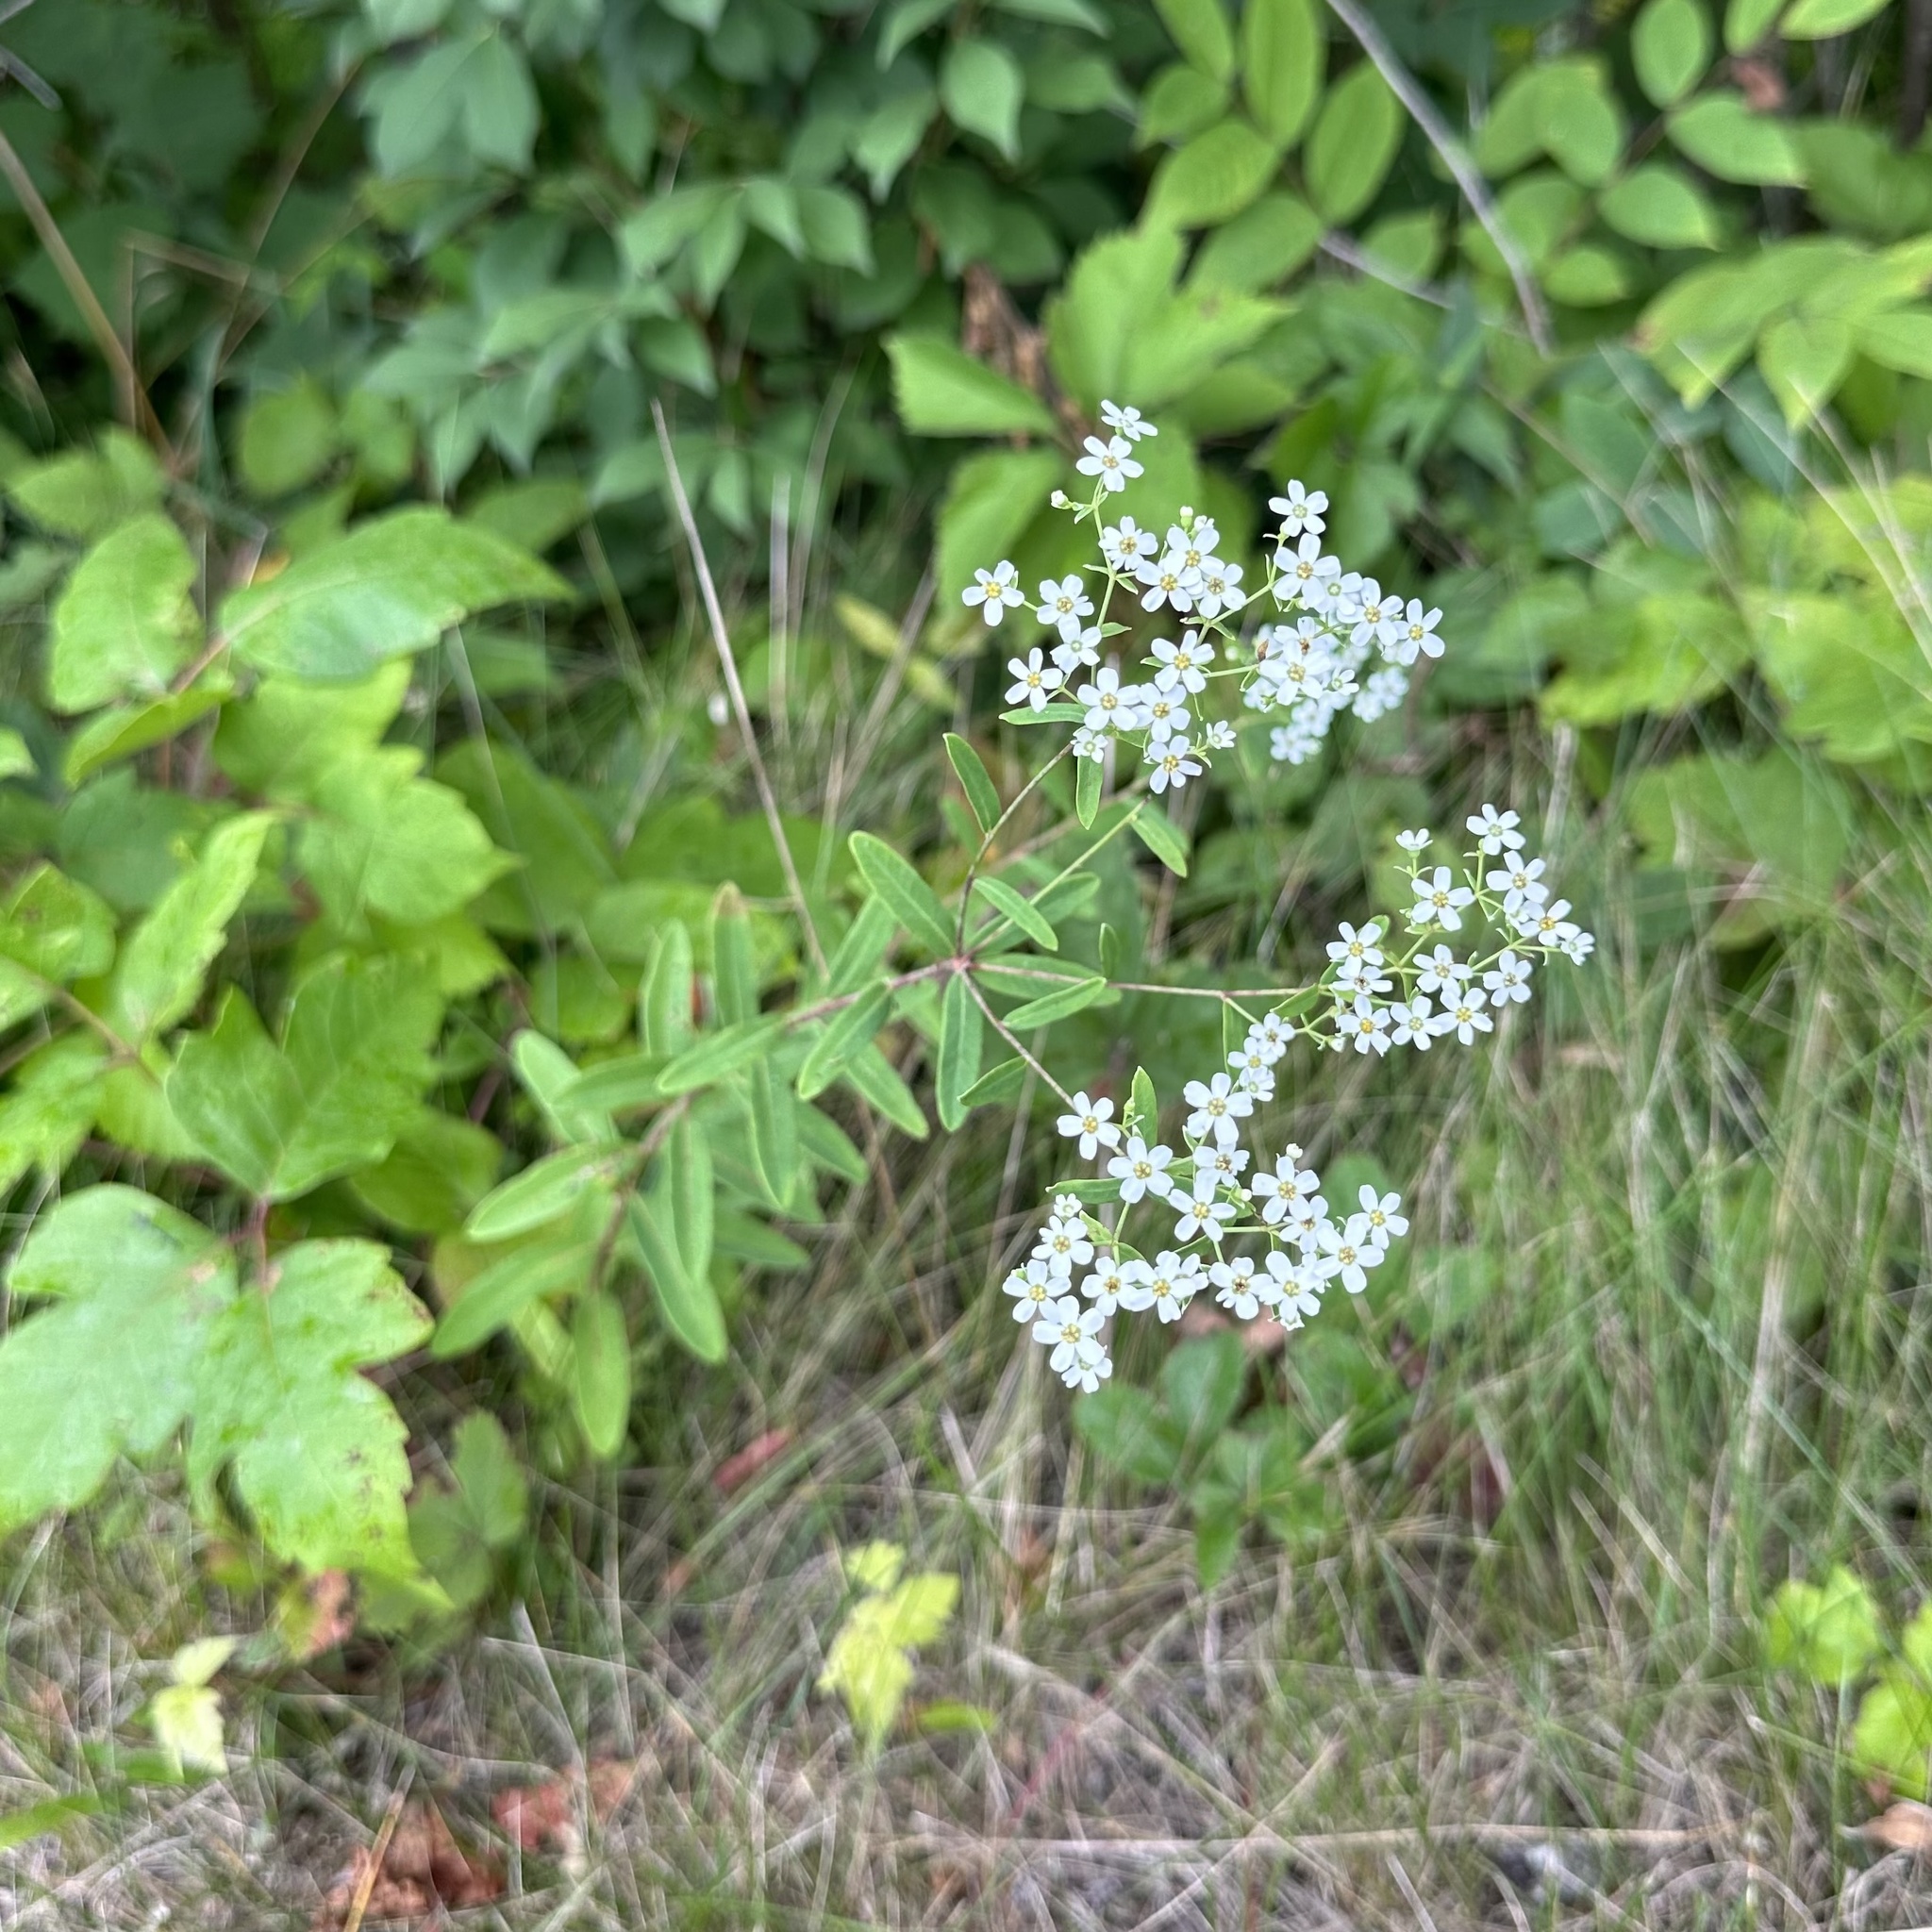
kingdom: Plantae
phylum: Tracheophyta
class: Magnoliopsida
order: Malpighiales
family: Euphorbiaceae
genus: Euphorbia
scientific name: Euphorbia corollata
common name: Flowering spurge
